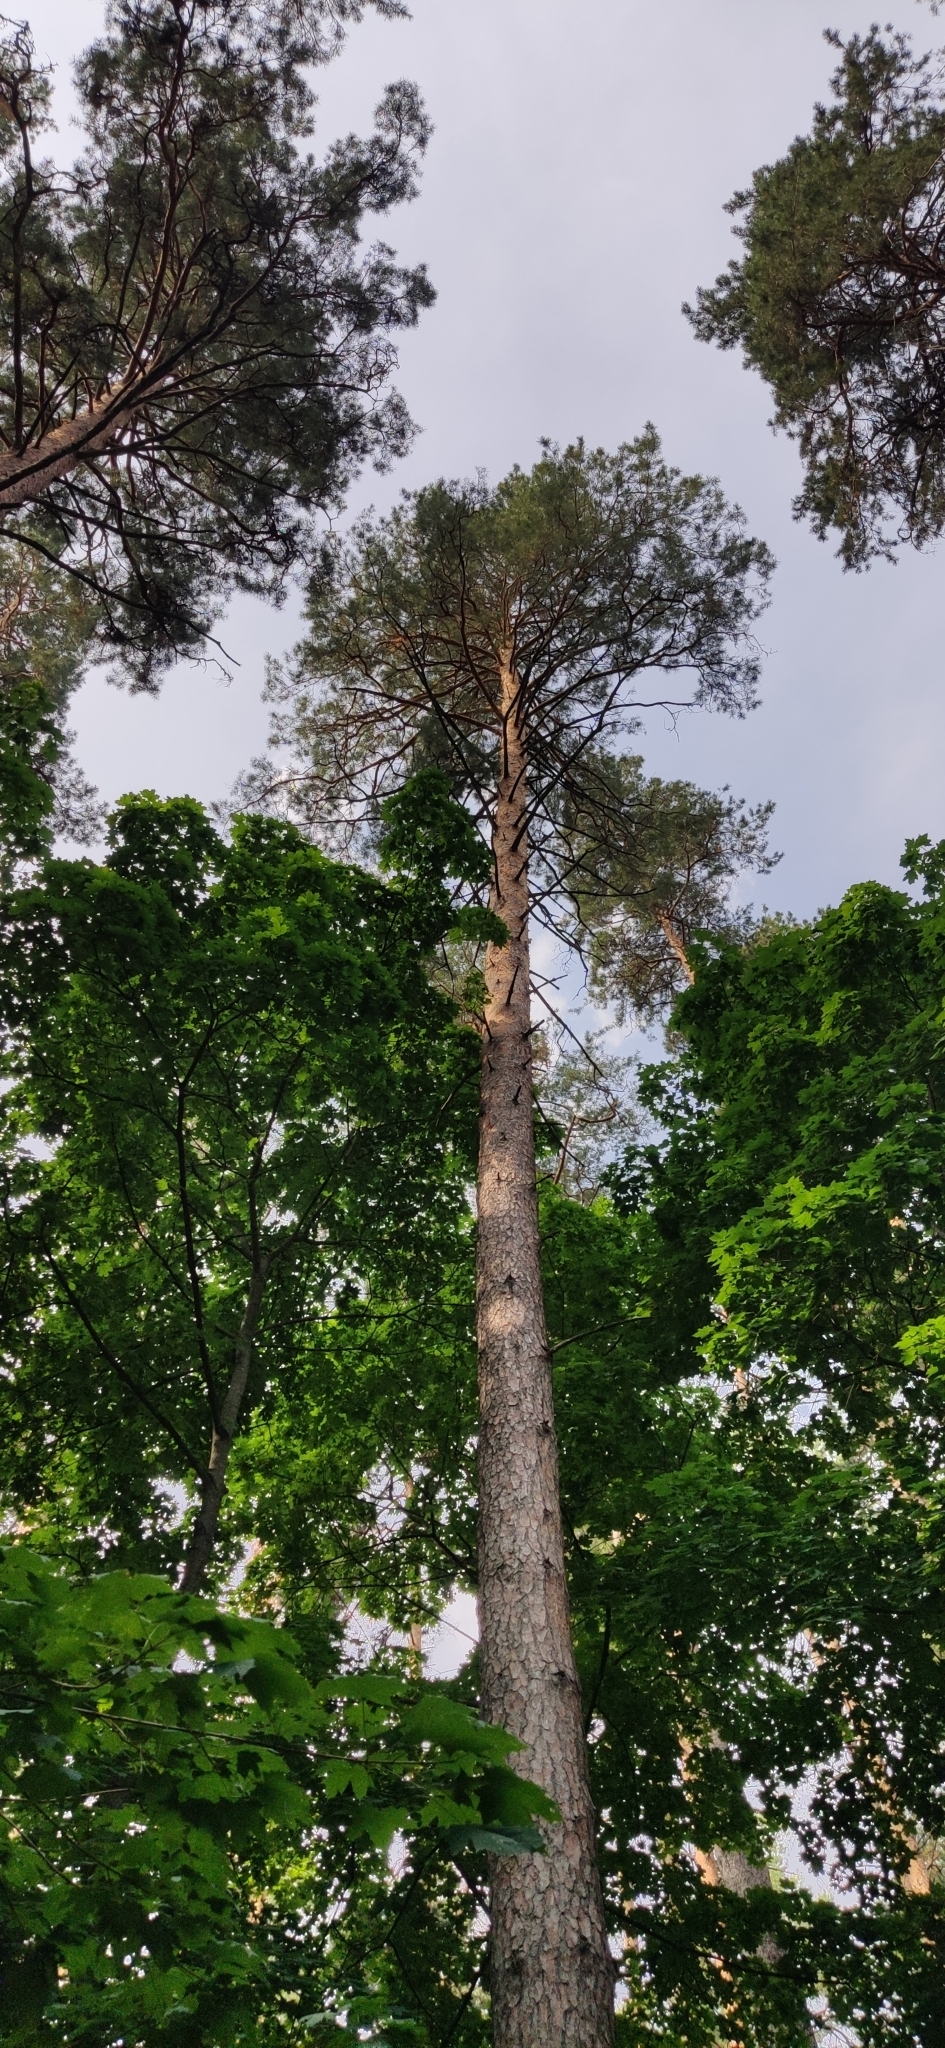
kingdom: Plantae
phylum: Tracheophyta
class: Pinopsida
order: Pinales
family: Pinaceae
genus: Pinus
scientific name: Pinus sylvestris
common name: Scots pine
